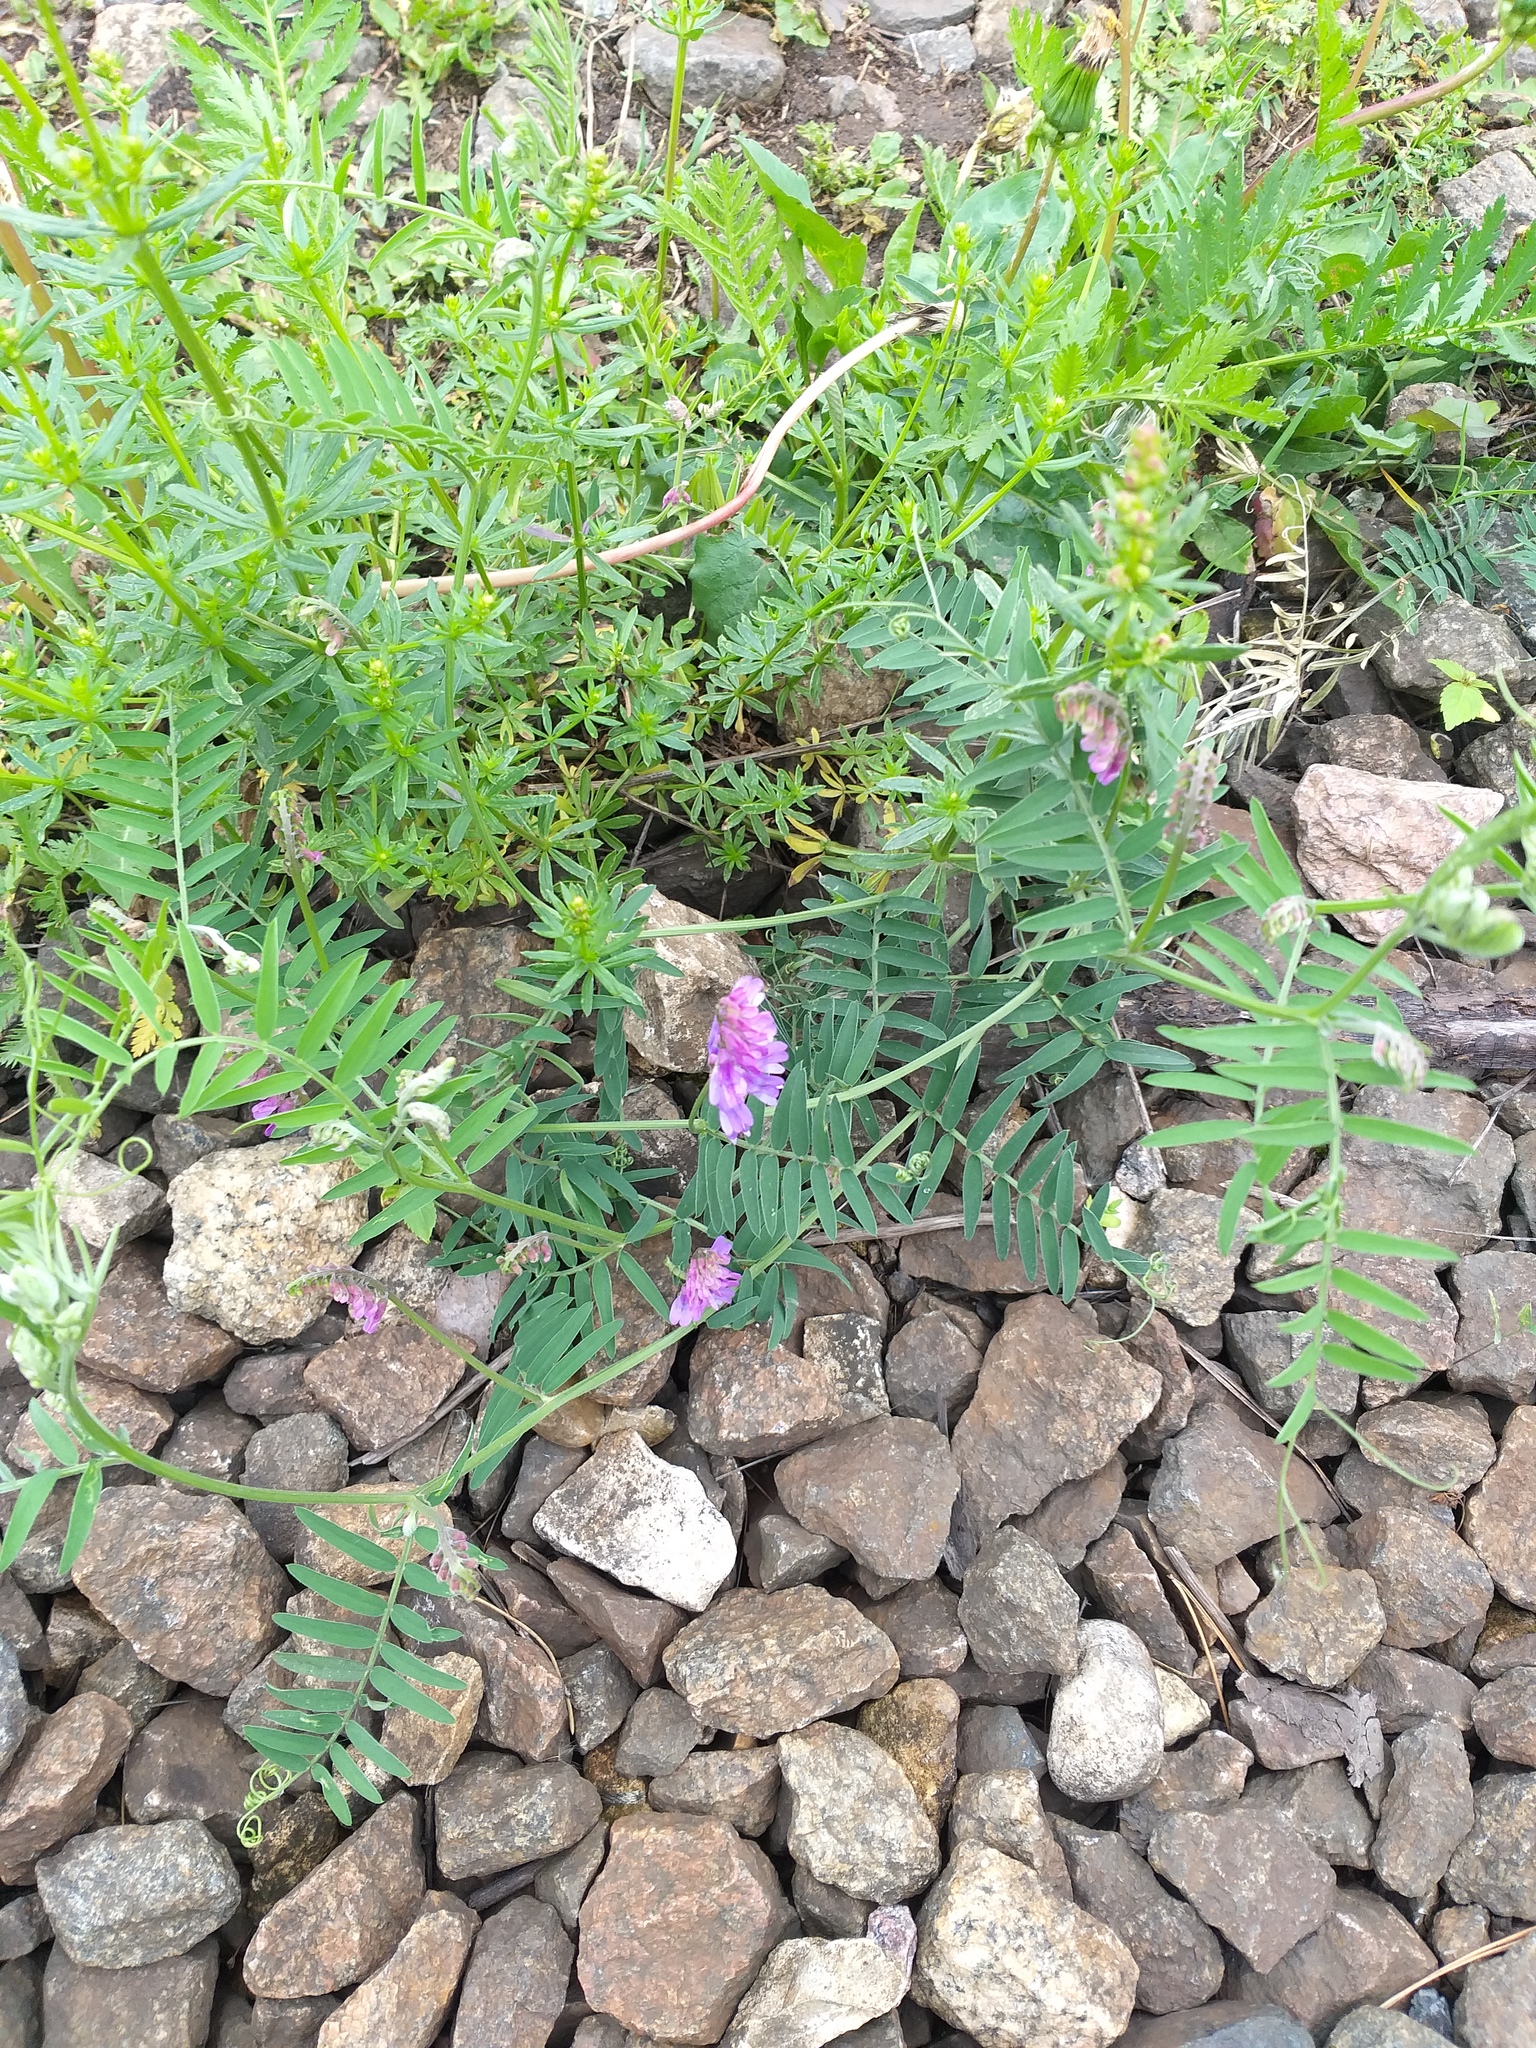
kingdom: Plantae
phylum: Tracheophyta
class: Magnoliopsida
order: Fabales
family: Fabaceae
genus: Vicia
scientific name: Vicia cracca
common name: Bird vetch
